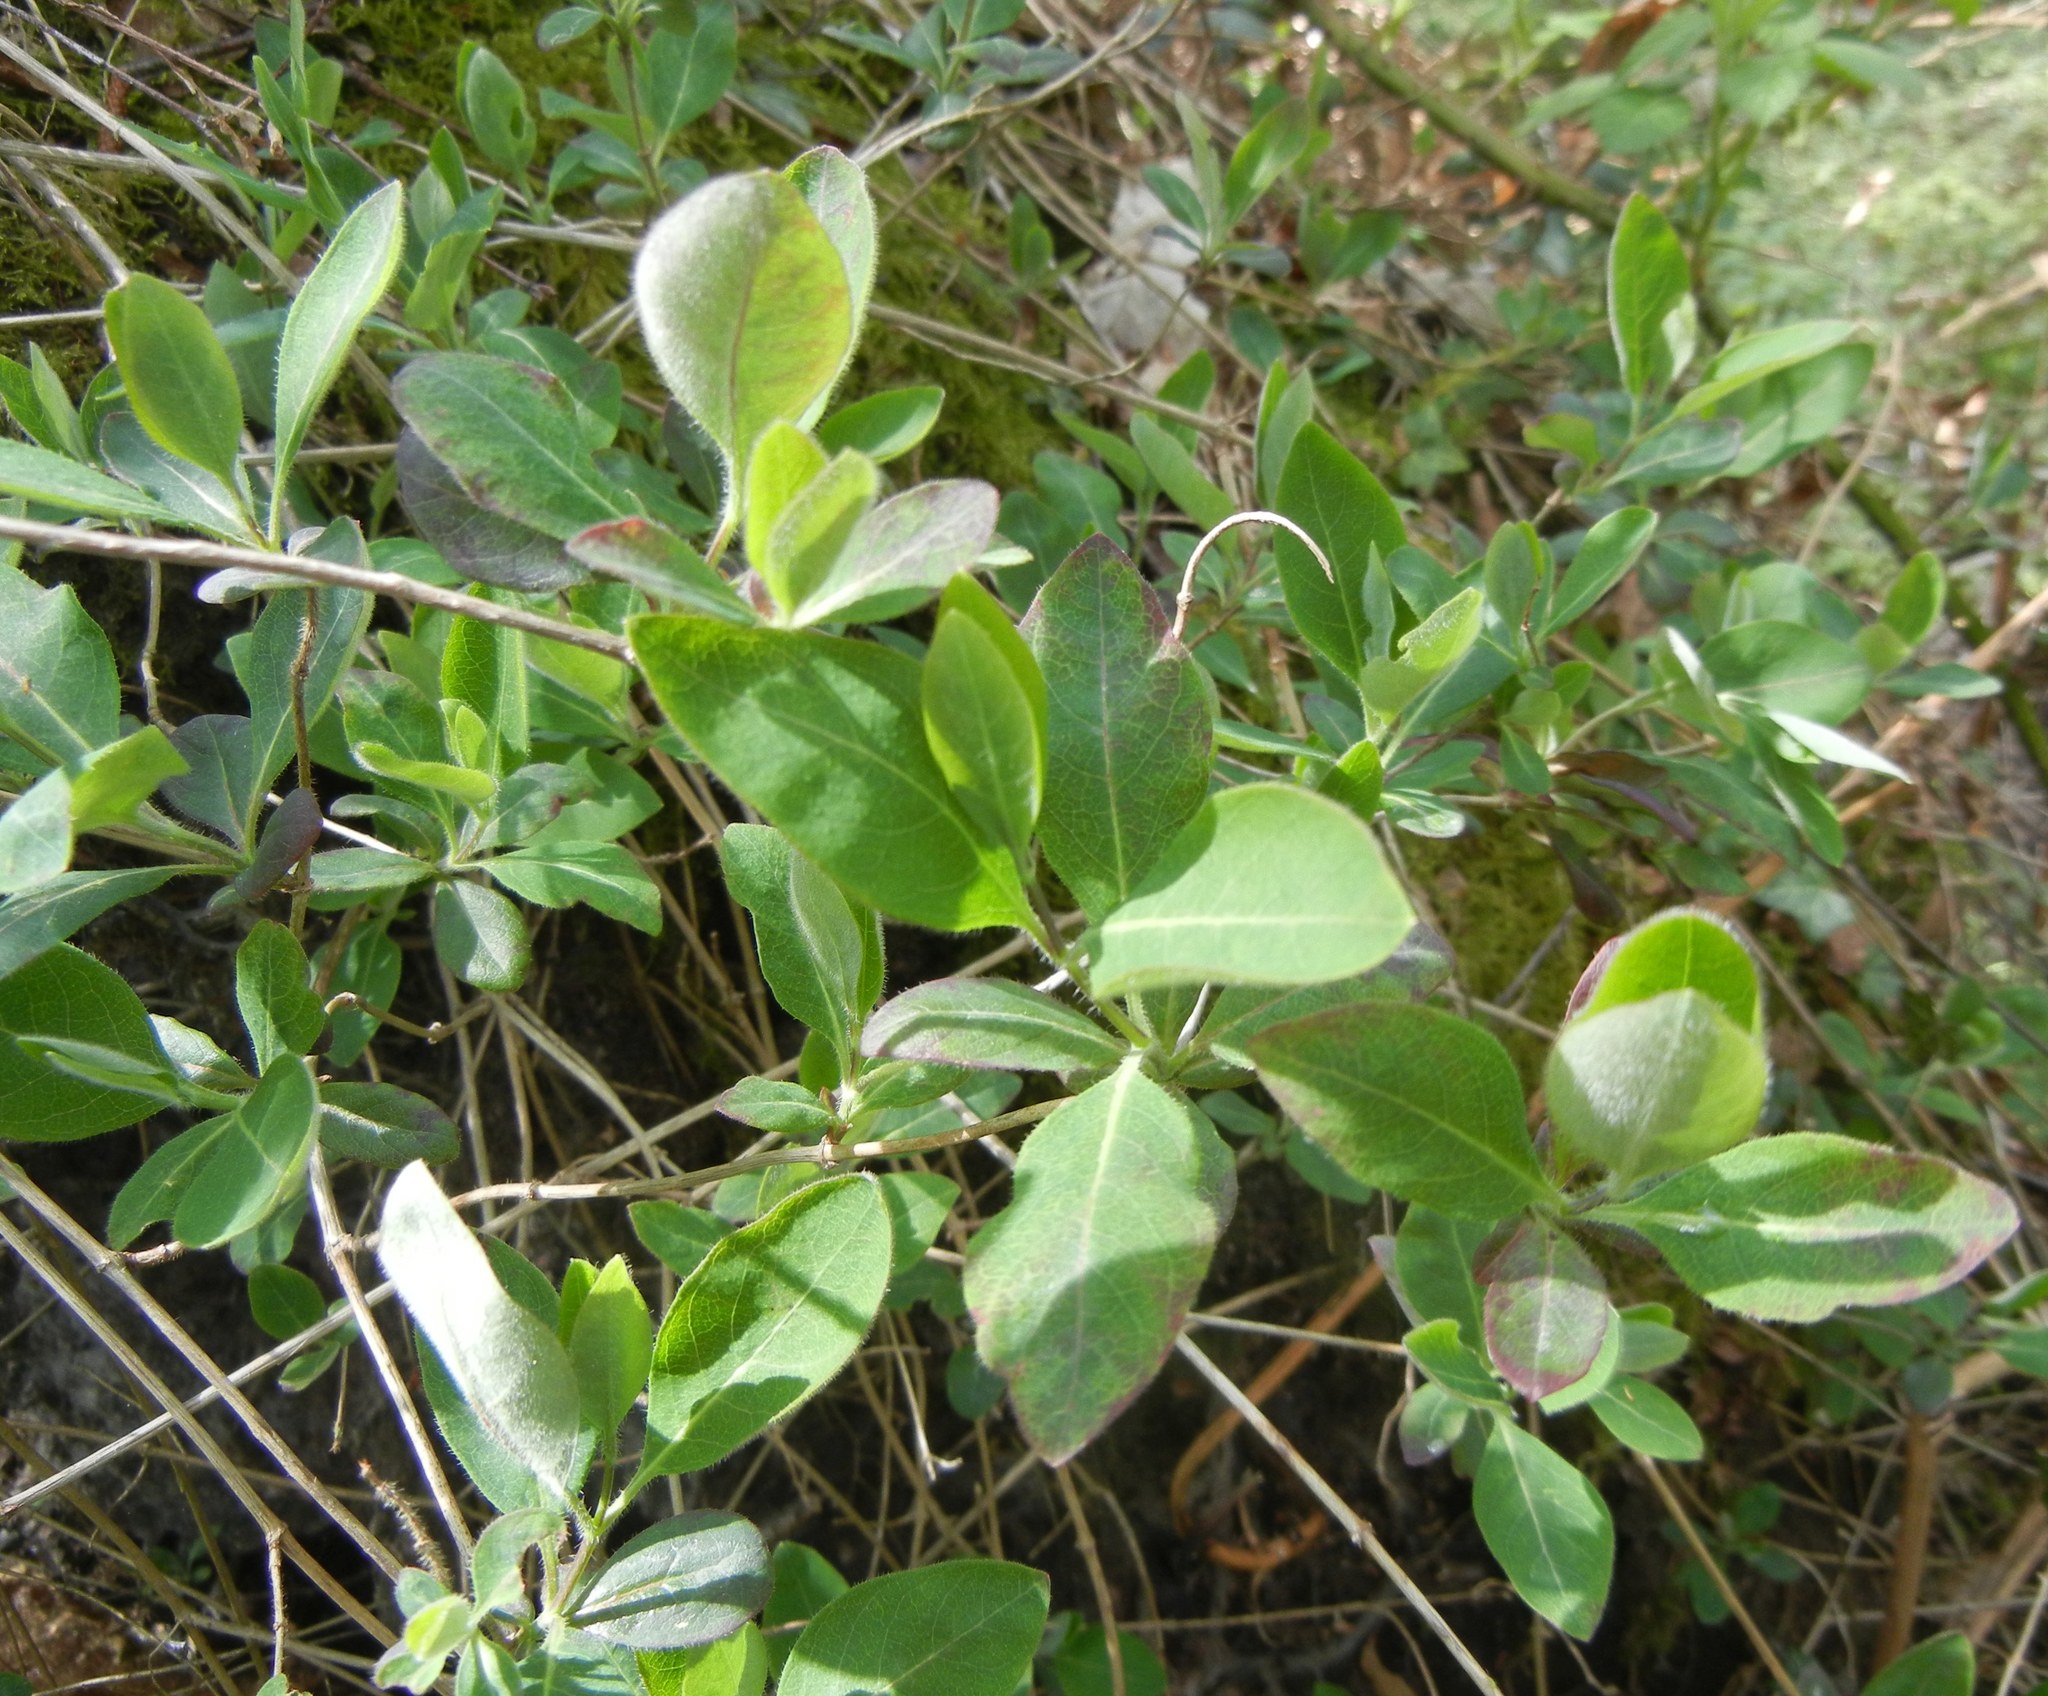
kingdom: Plantae
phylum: Tracheophyta
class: Magnoliopsida
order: Dipsacales
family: Caprifoliaceae
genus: Lonicera
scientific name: Lonicera periclymenum
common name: European honeysuckle
